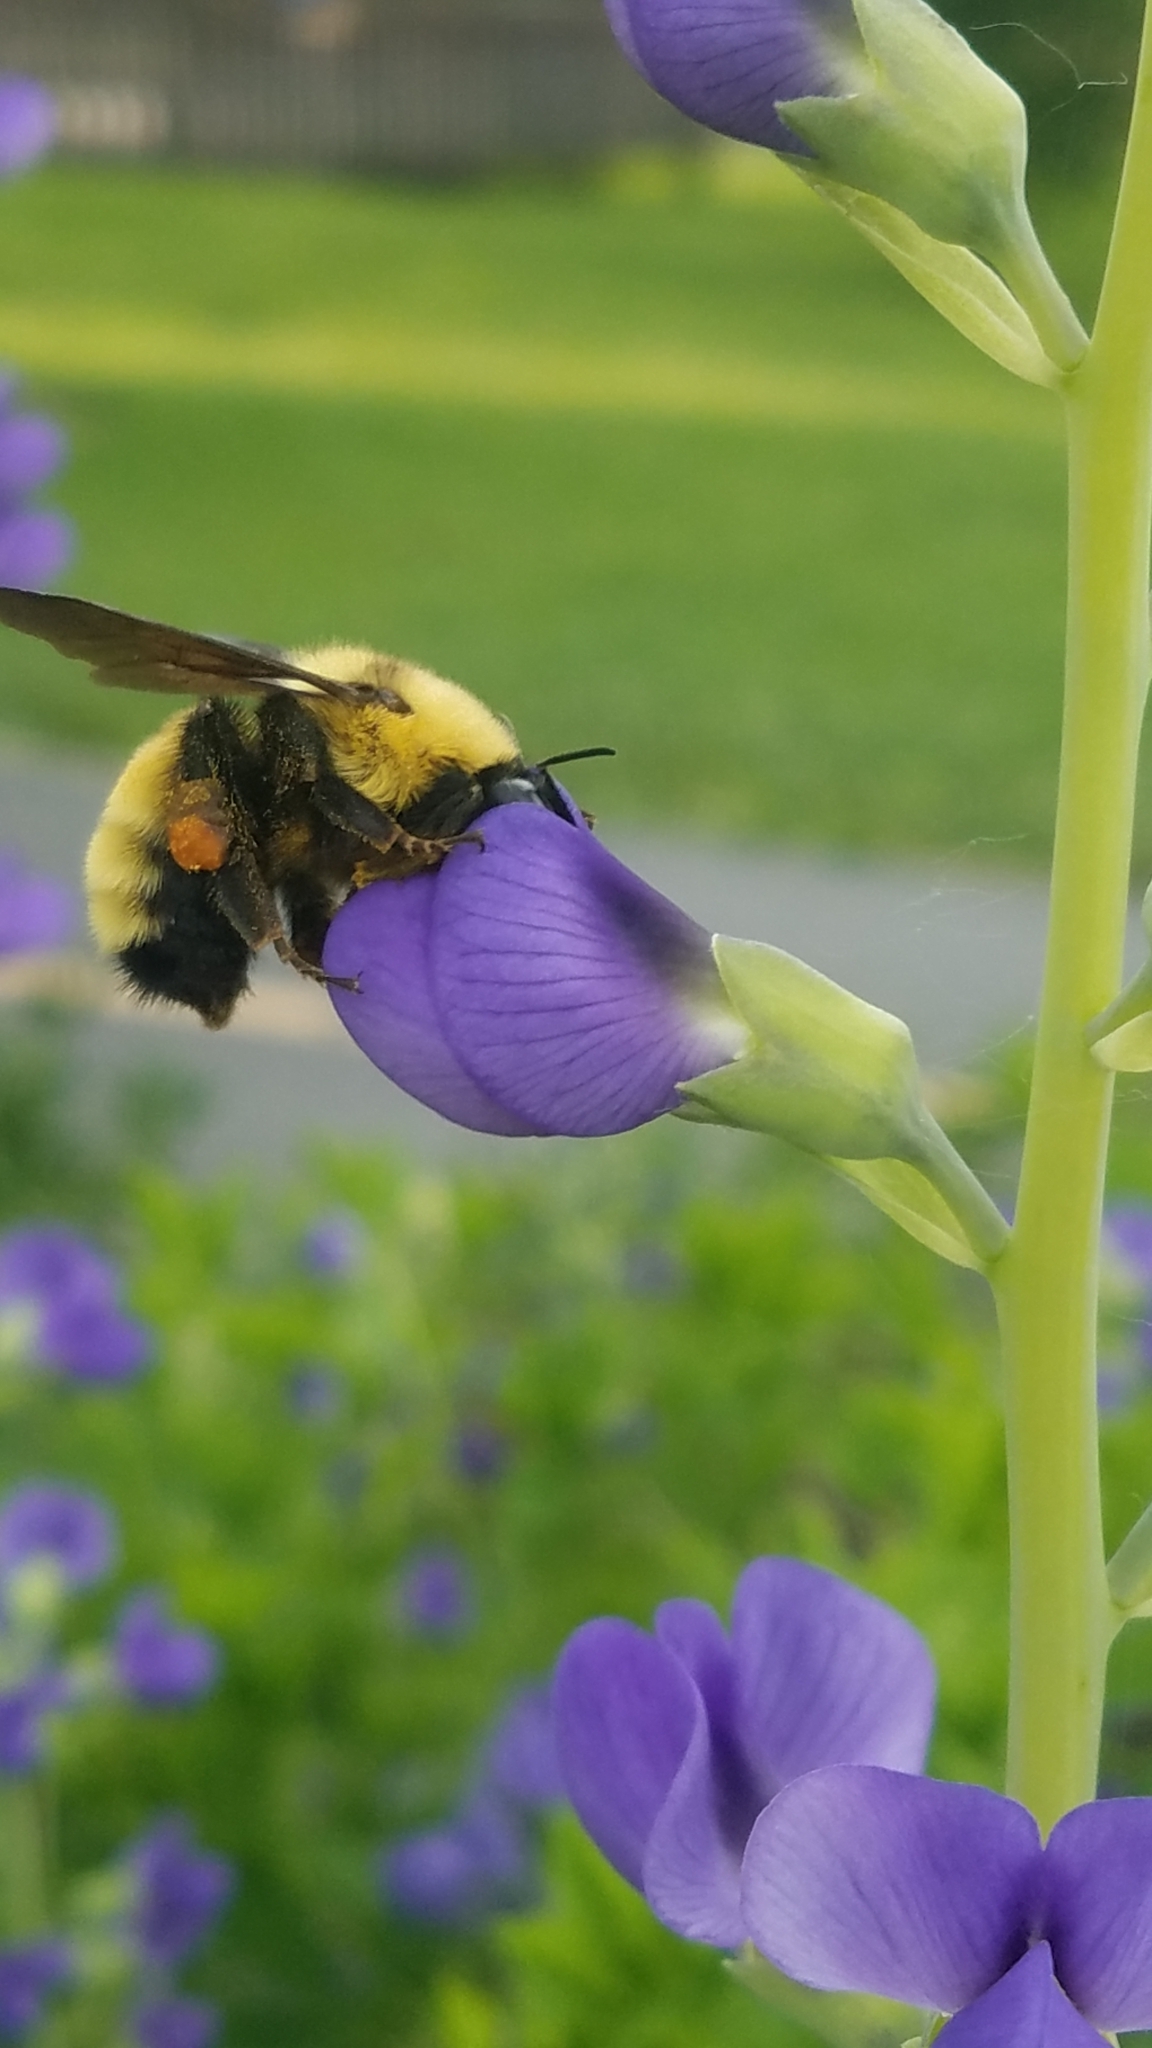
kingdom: Animalia
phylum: Arthropoda
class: Insecta
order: Hymenoptera
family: Apidae
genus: Bombus
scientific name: Bombus fervidus
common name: Yellow bumble bee
